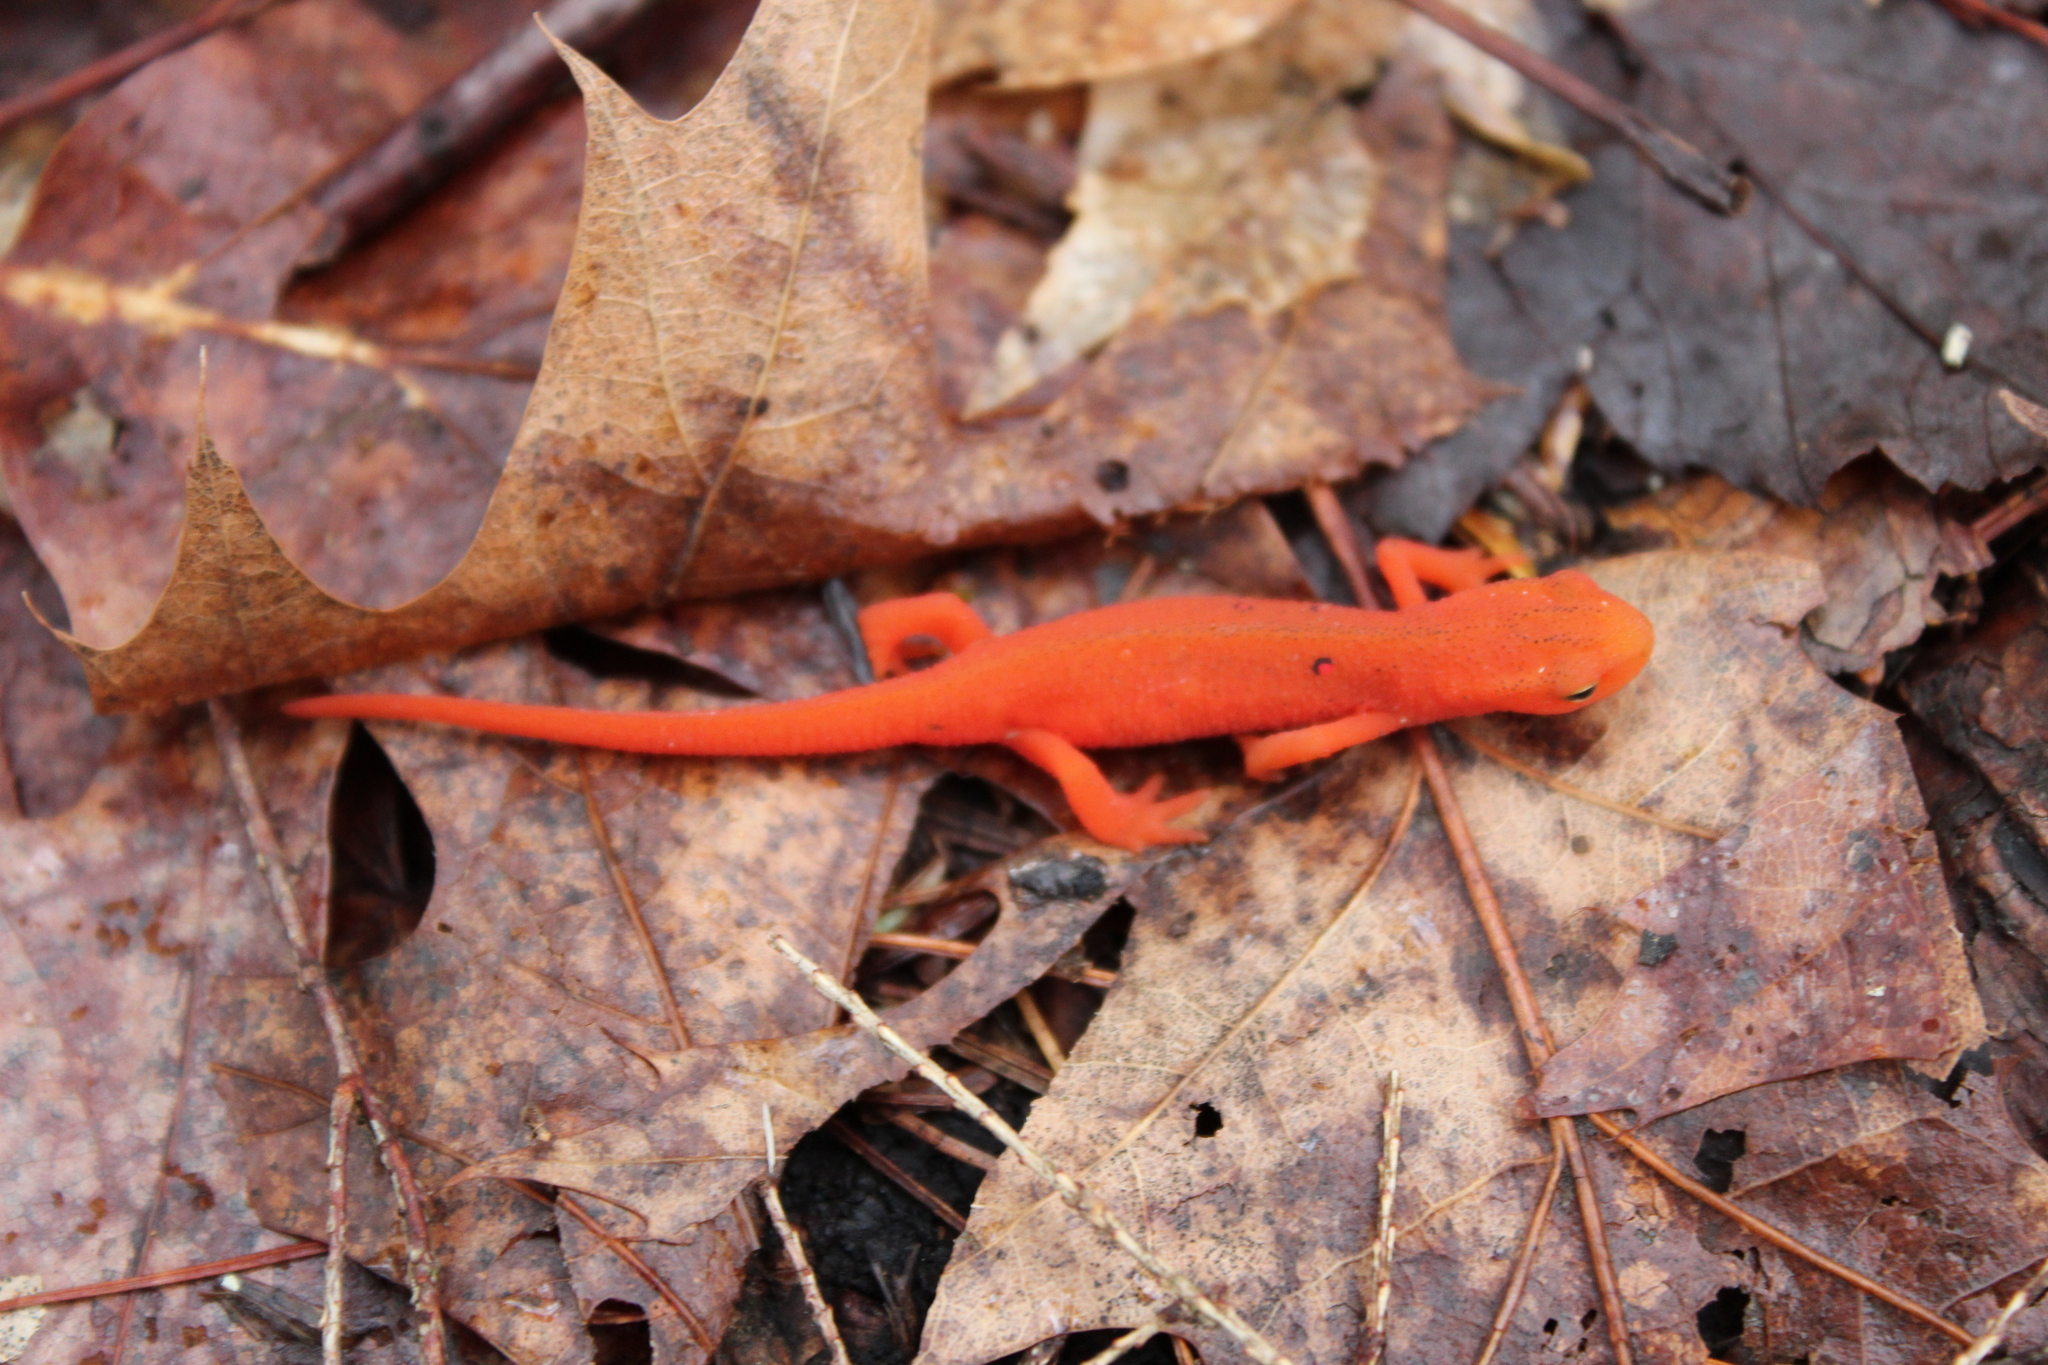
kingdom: Animalia
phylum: Chordata
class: Amphibia
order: Caudata
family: Salamandridae
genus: Notophthalmus
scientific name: Notophthalmus viridescens
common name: Eastern newt
